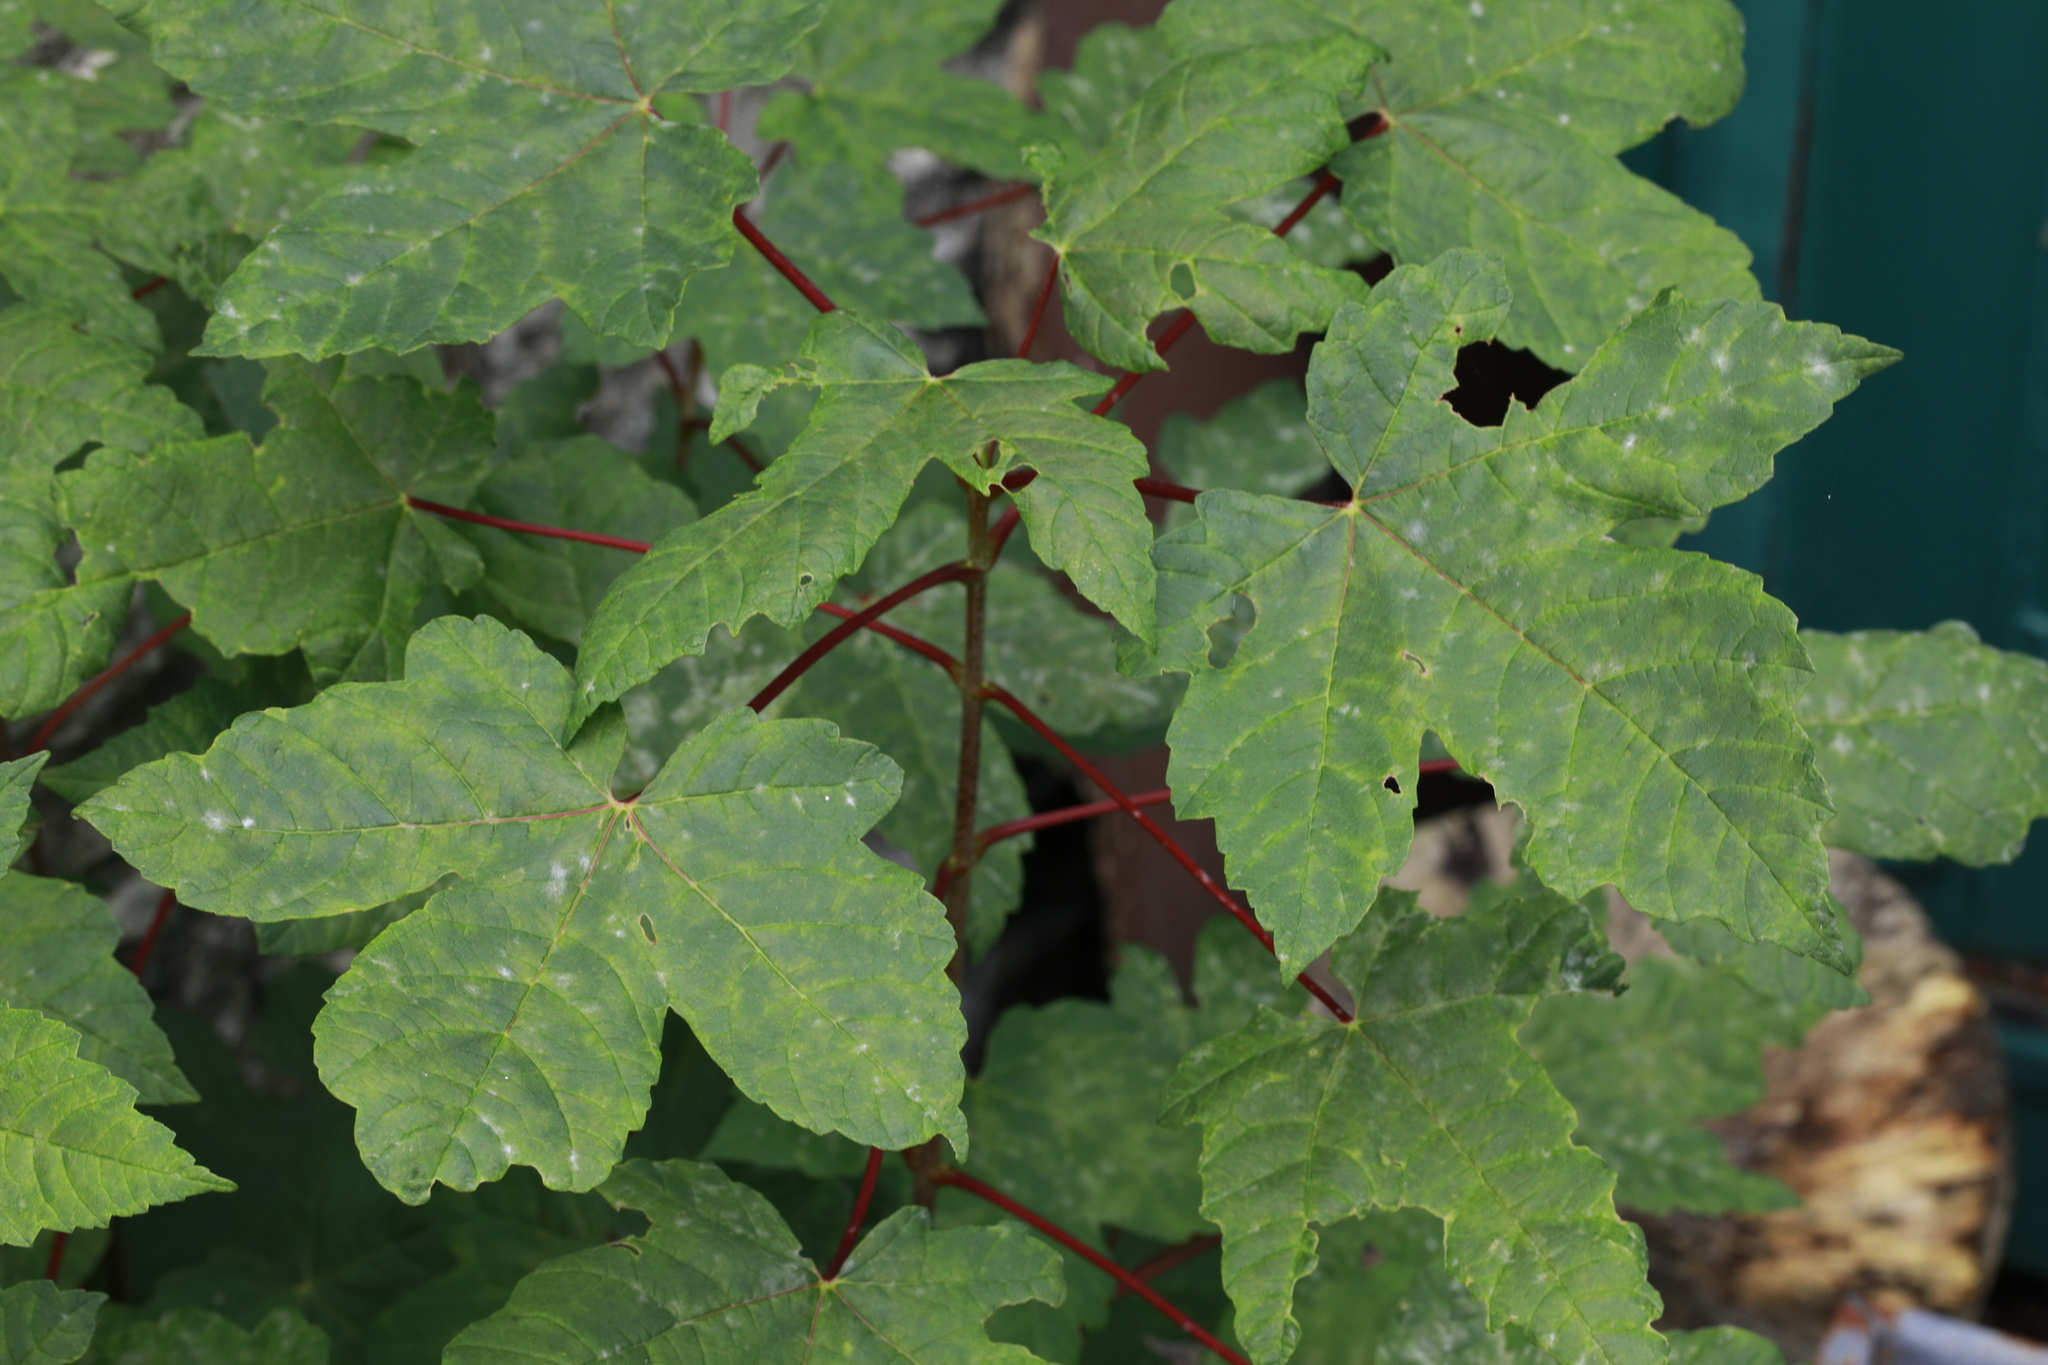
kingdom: Plantae
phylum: Tracheophyta
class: Magnoliopsida
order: Sapindales
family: Sapindaceae
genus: Acer
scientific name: Acer pseudoplatanus
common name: Sycamore
